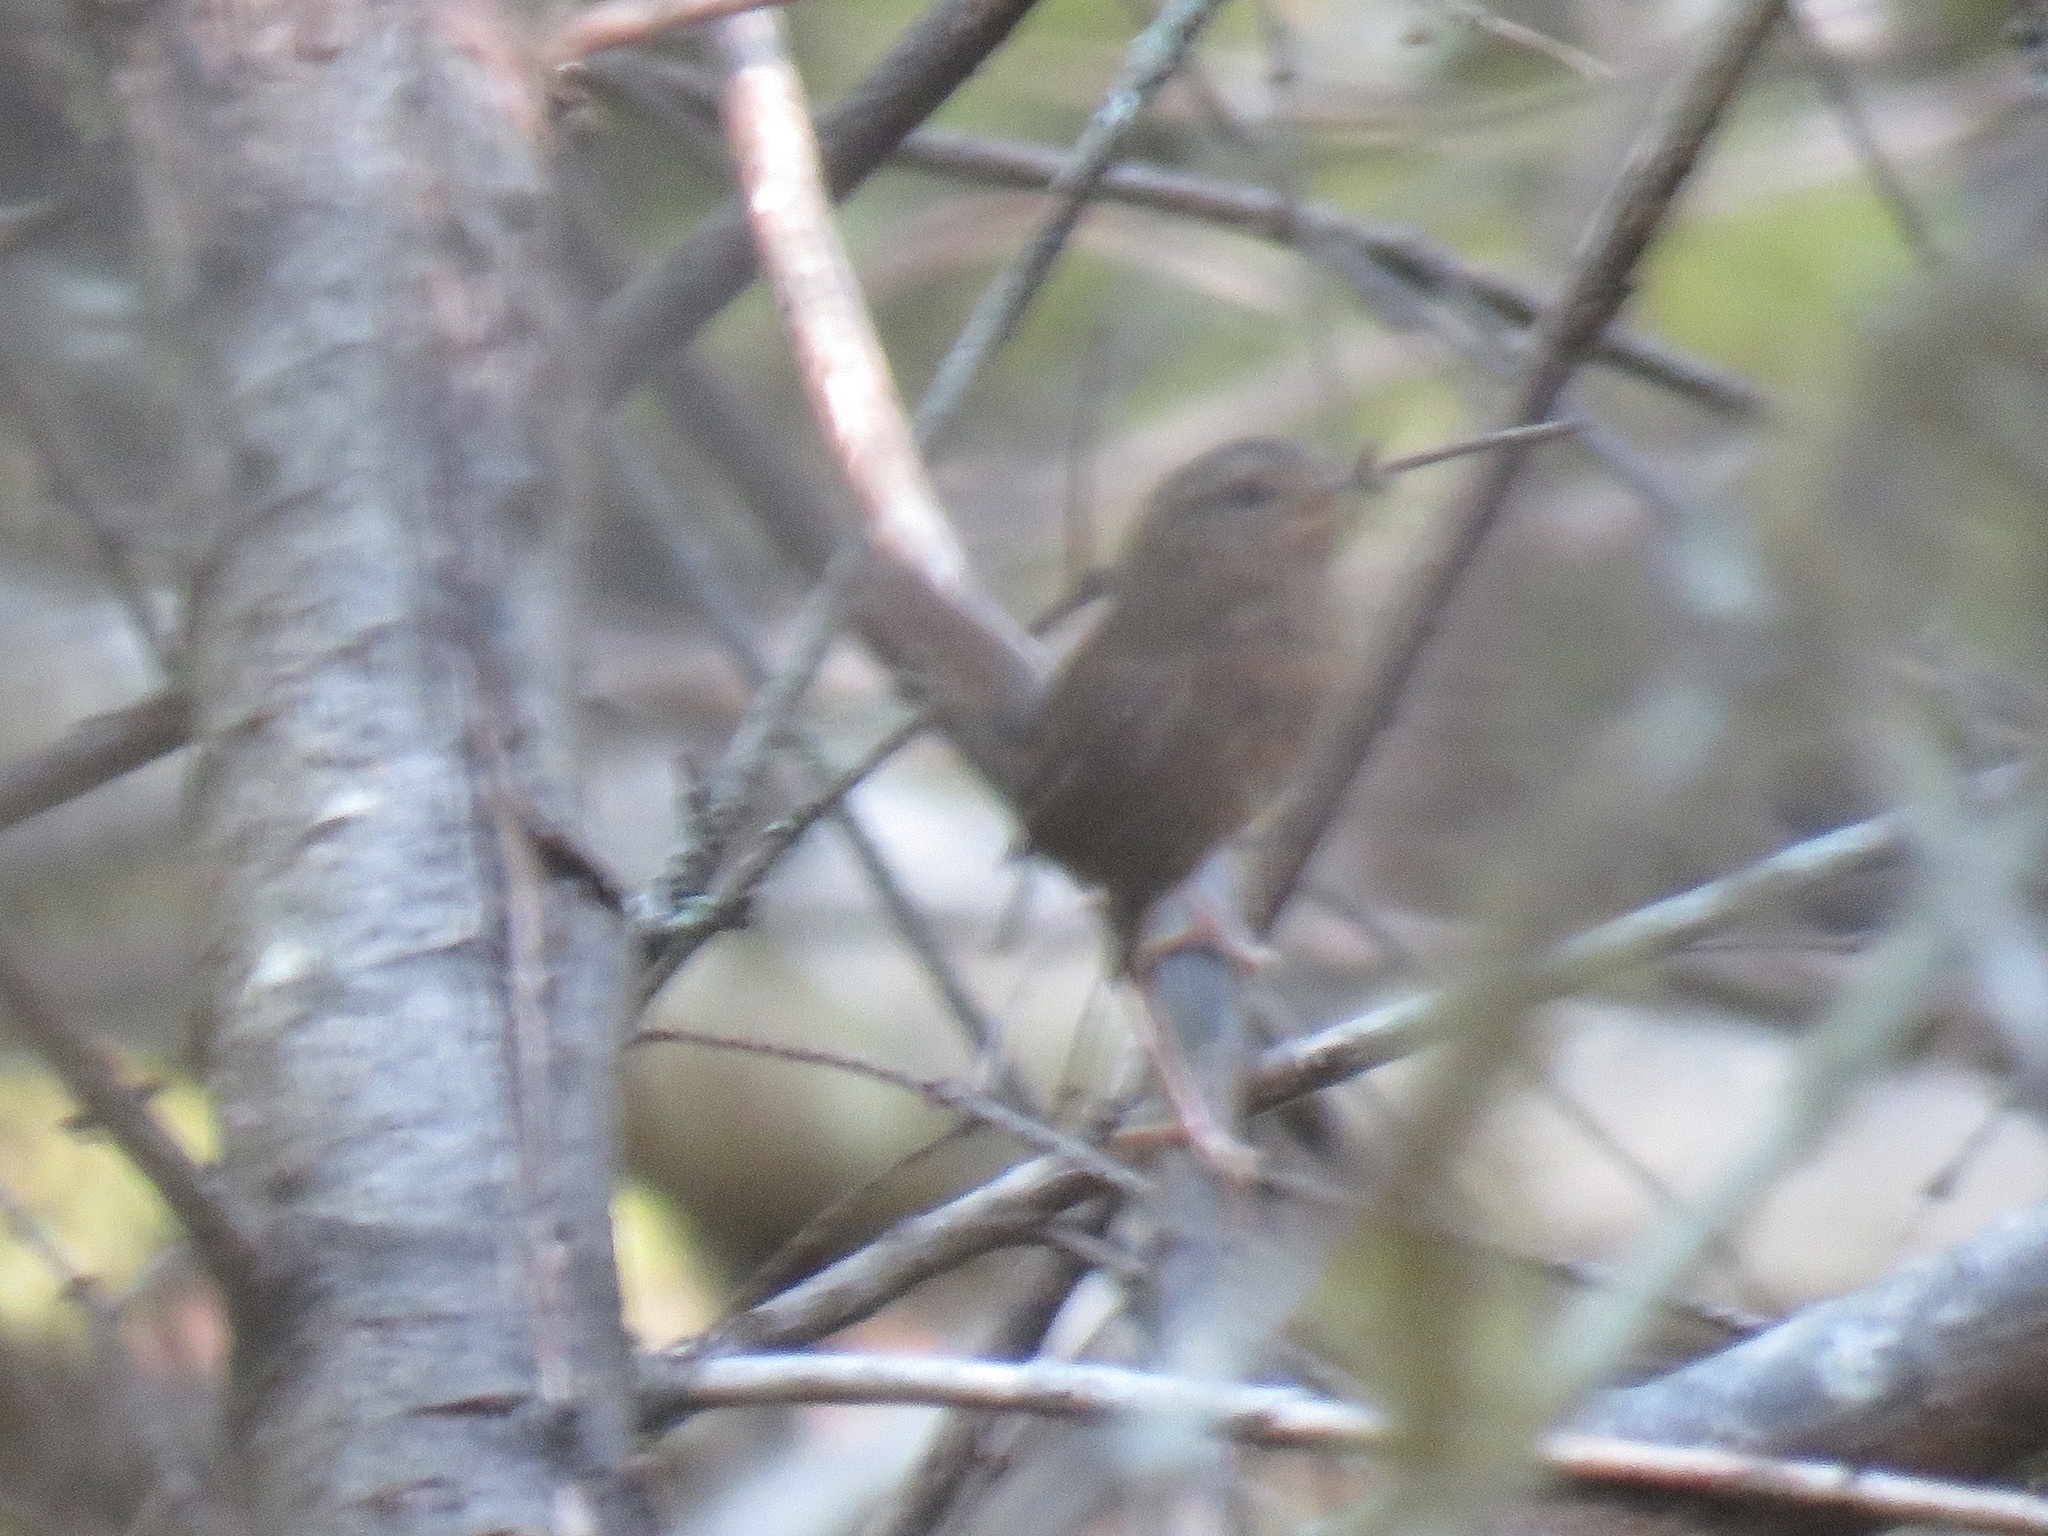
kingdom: Animalia
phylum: Chordata
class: Aves
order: Passeriformes
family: Troglodytidae
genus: Troglodytes
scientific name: Troglodytes pacificus
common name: Pacific wren
